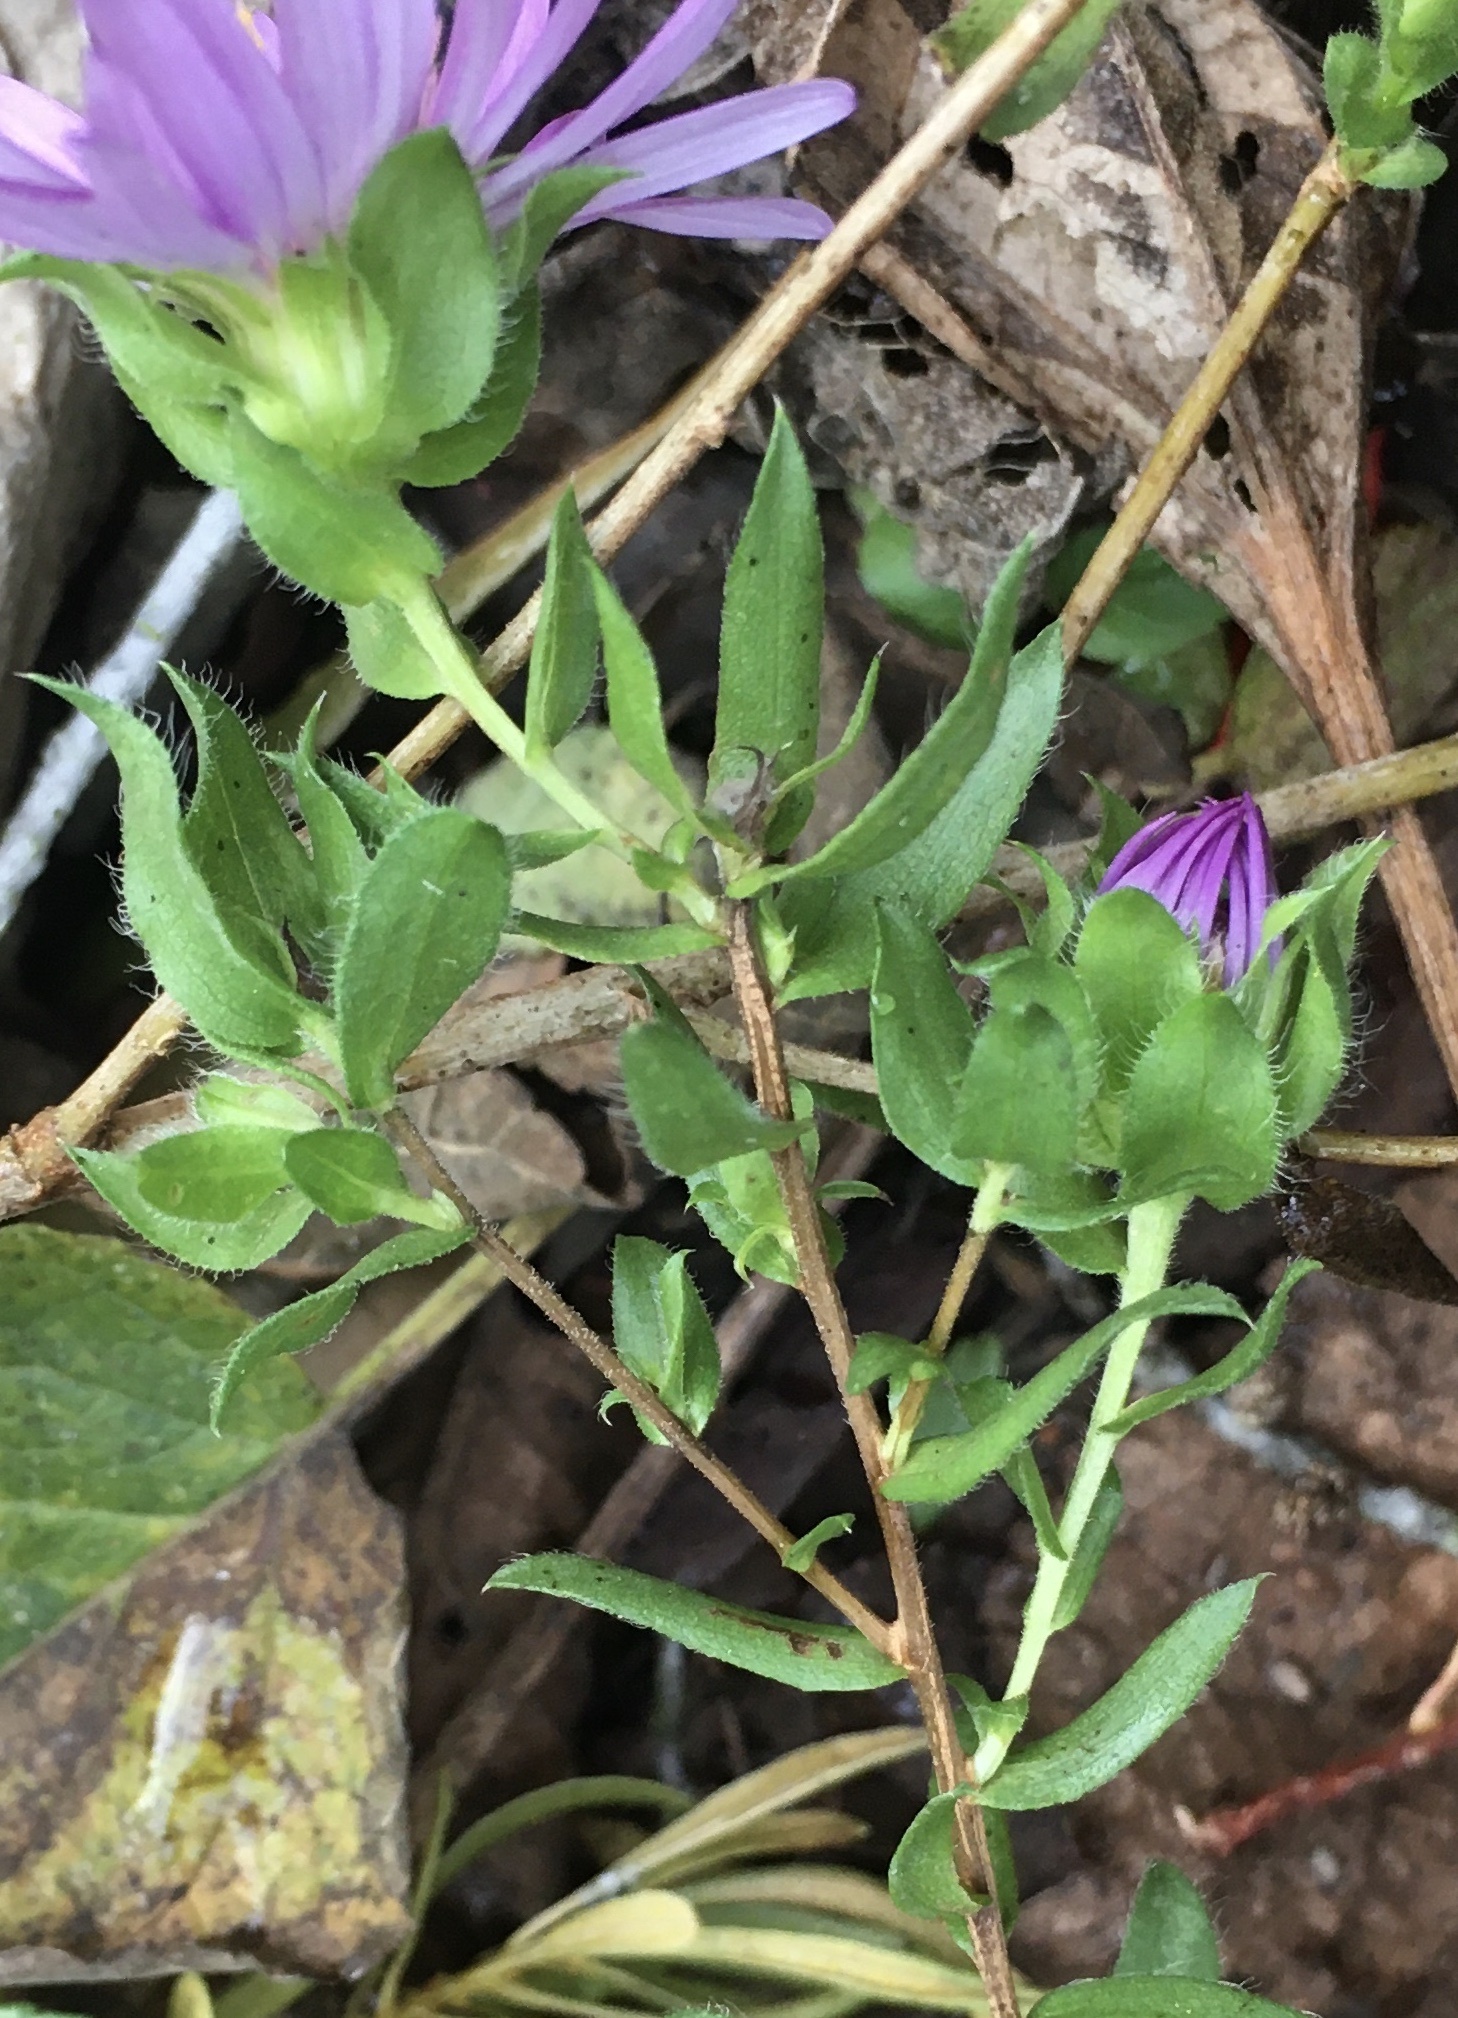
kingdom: Plantae
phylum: Tracheophyta
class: Magnoliopsida
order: Asterales
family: Asteraceae
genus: Symphyotrichum
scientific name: Symphyotrichum pratense
